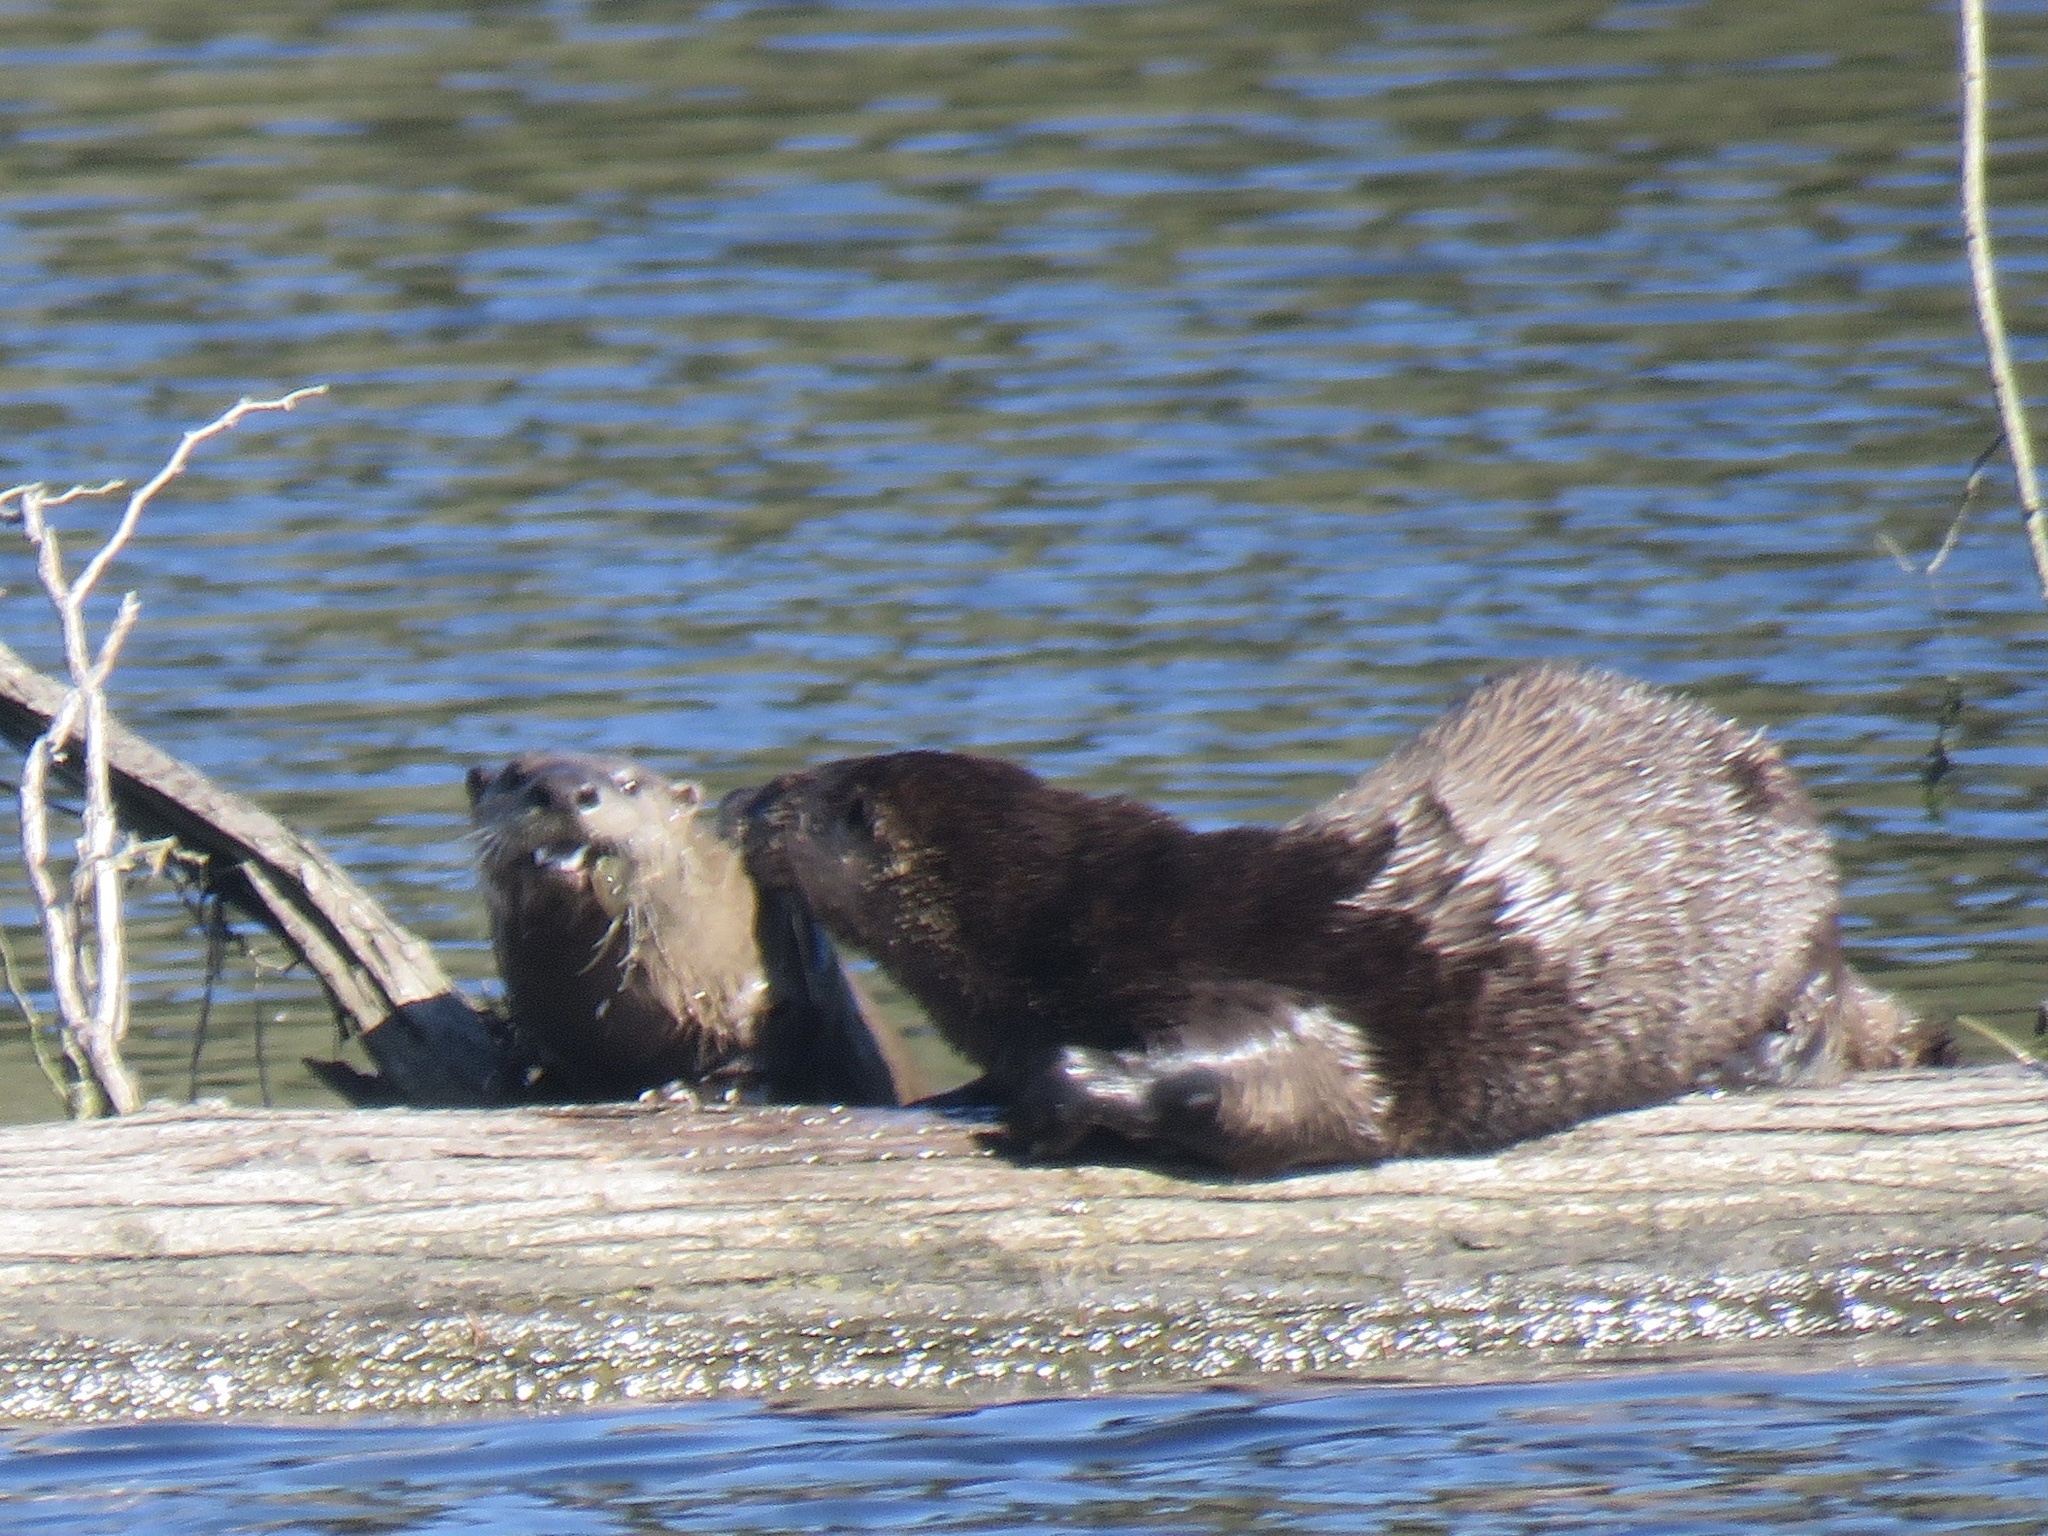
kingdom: Animalia
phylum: Chordata
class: Mammalia
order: Carnivora
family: Mustelidae
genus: Lontra
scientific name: Lontra canadensis
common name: North american river otter
